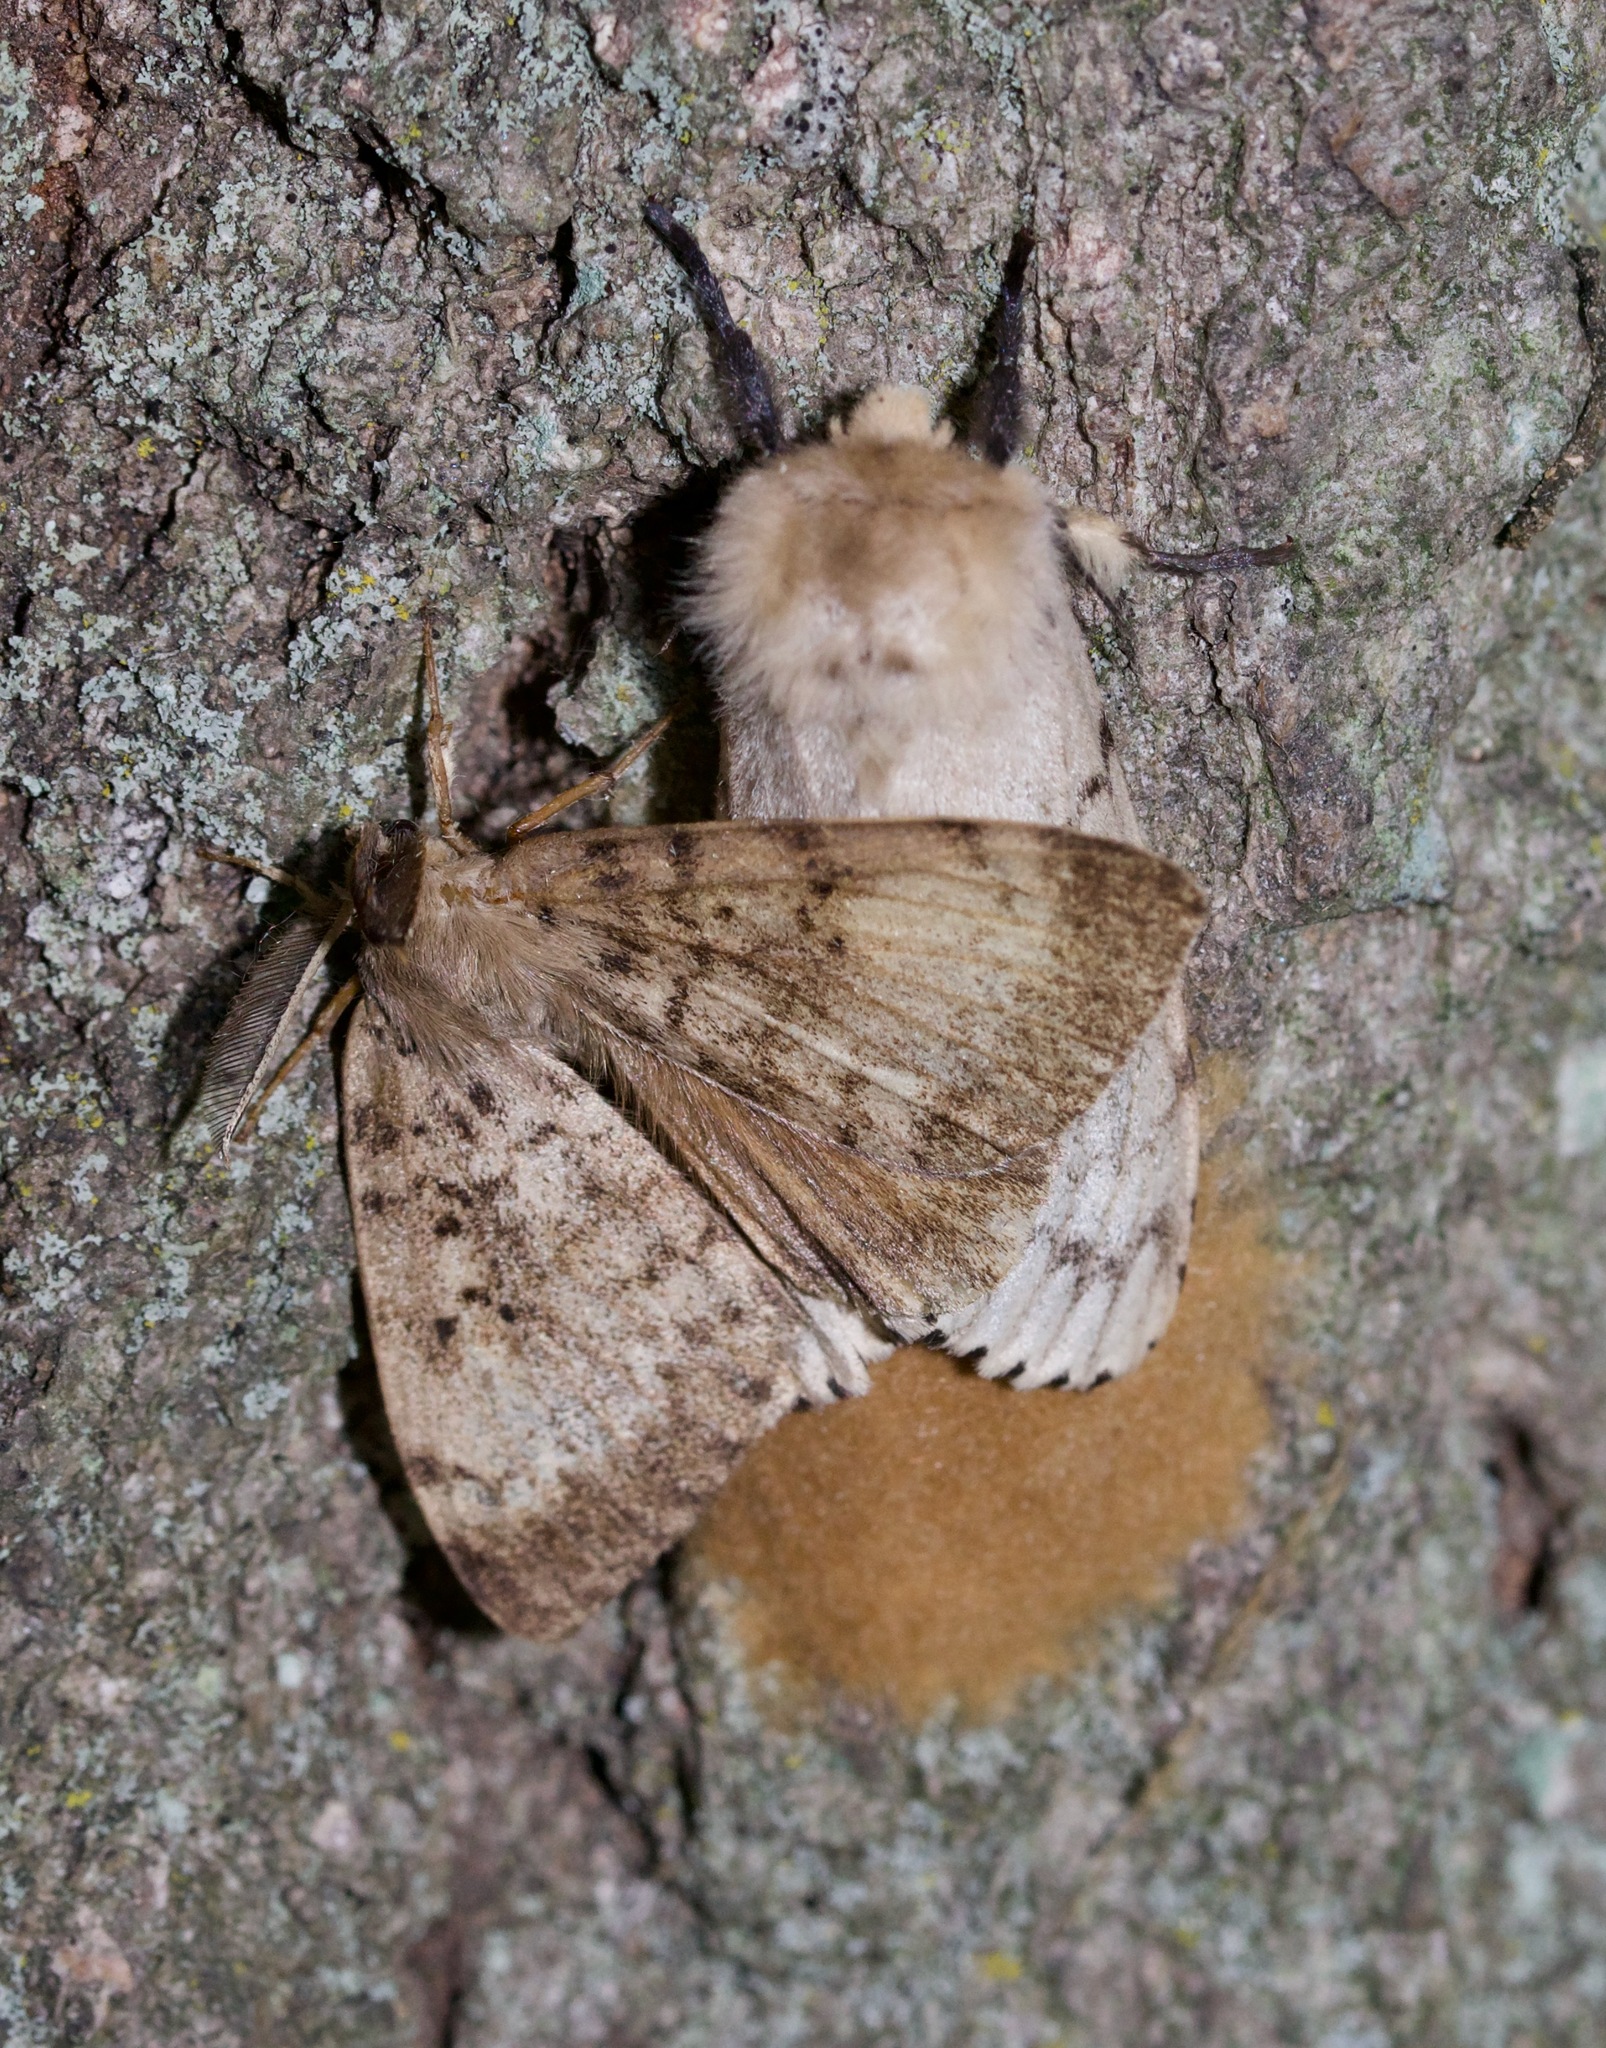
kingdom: Animalia
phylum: Arthropoda
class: Insecta
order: Lepidoptera
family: Erebidae
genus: Lymantria
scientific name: Lymantria dispar
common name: Gypsy moth
